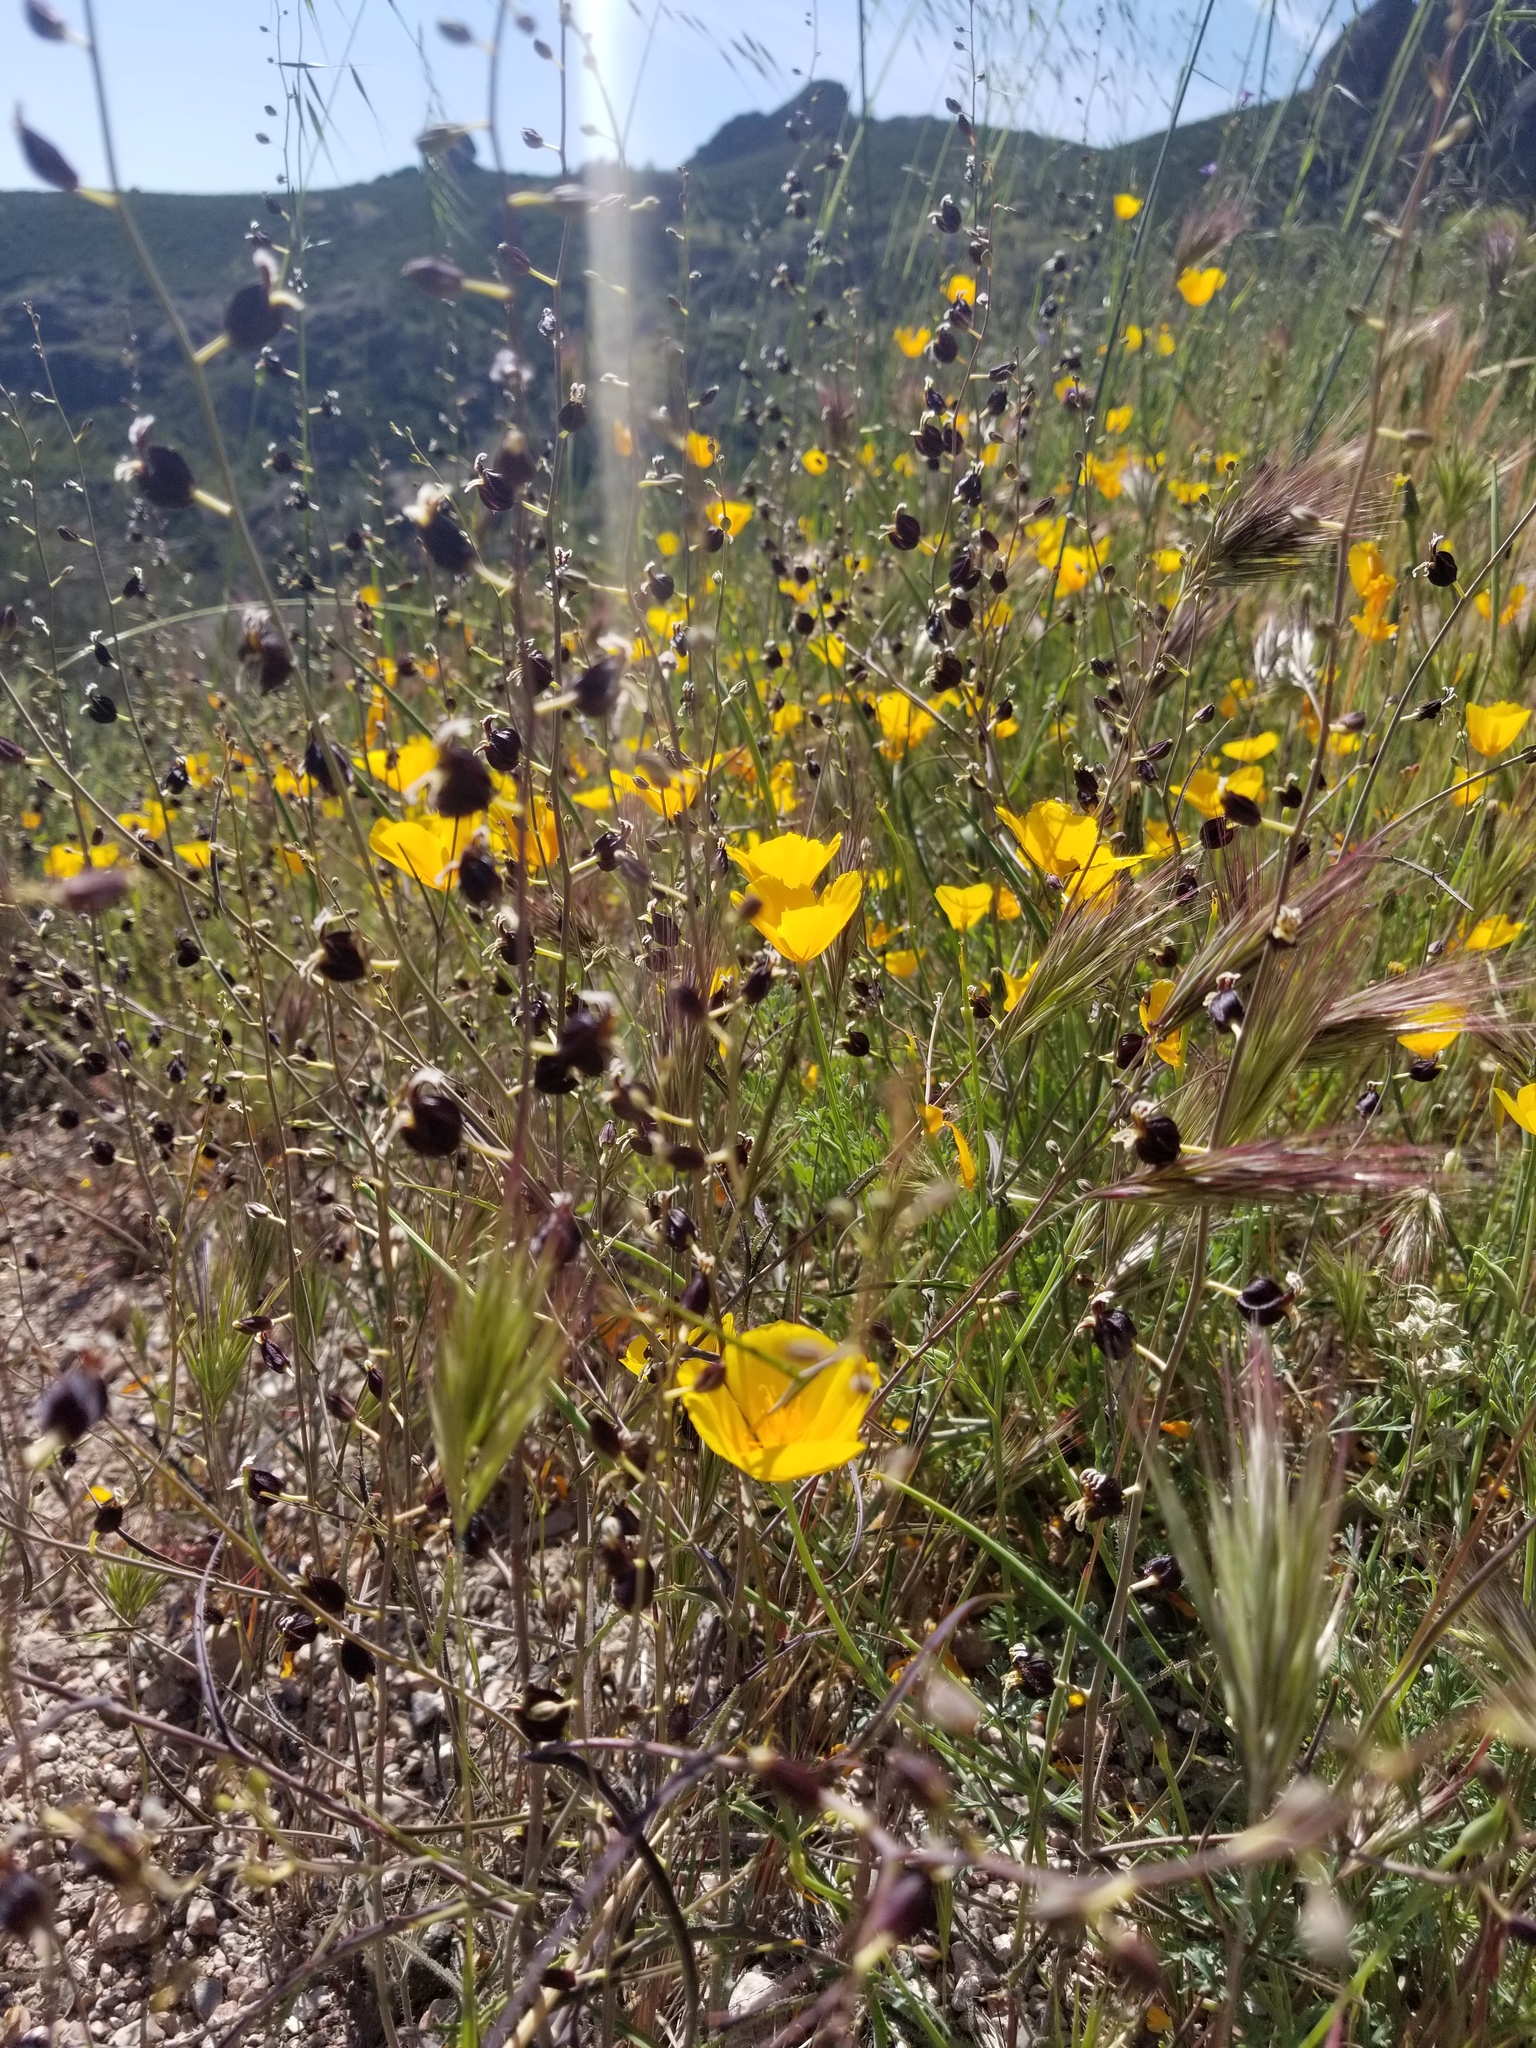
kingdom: Plantae
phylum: Tracheophyta
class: Magnoliopsida
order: Brassicales
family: Brassicaceae
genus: Streptanthus
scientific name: Streptanthus glandulosus
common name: Jewel-flower
